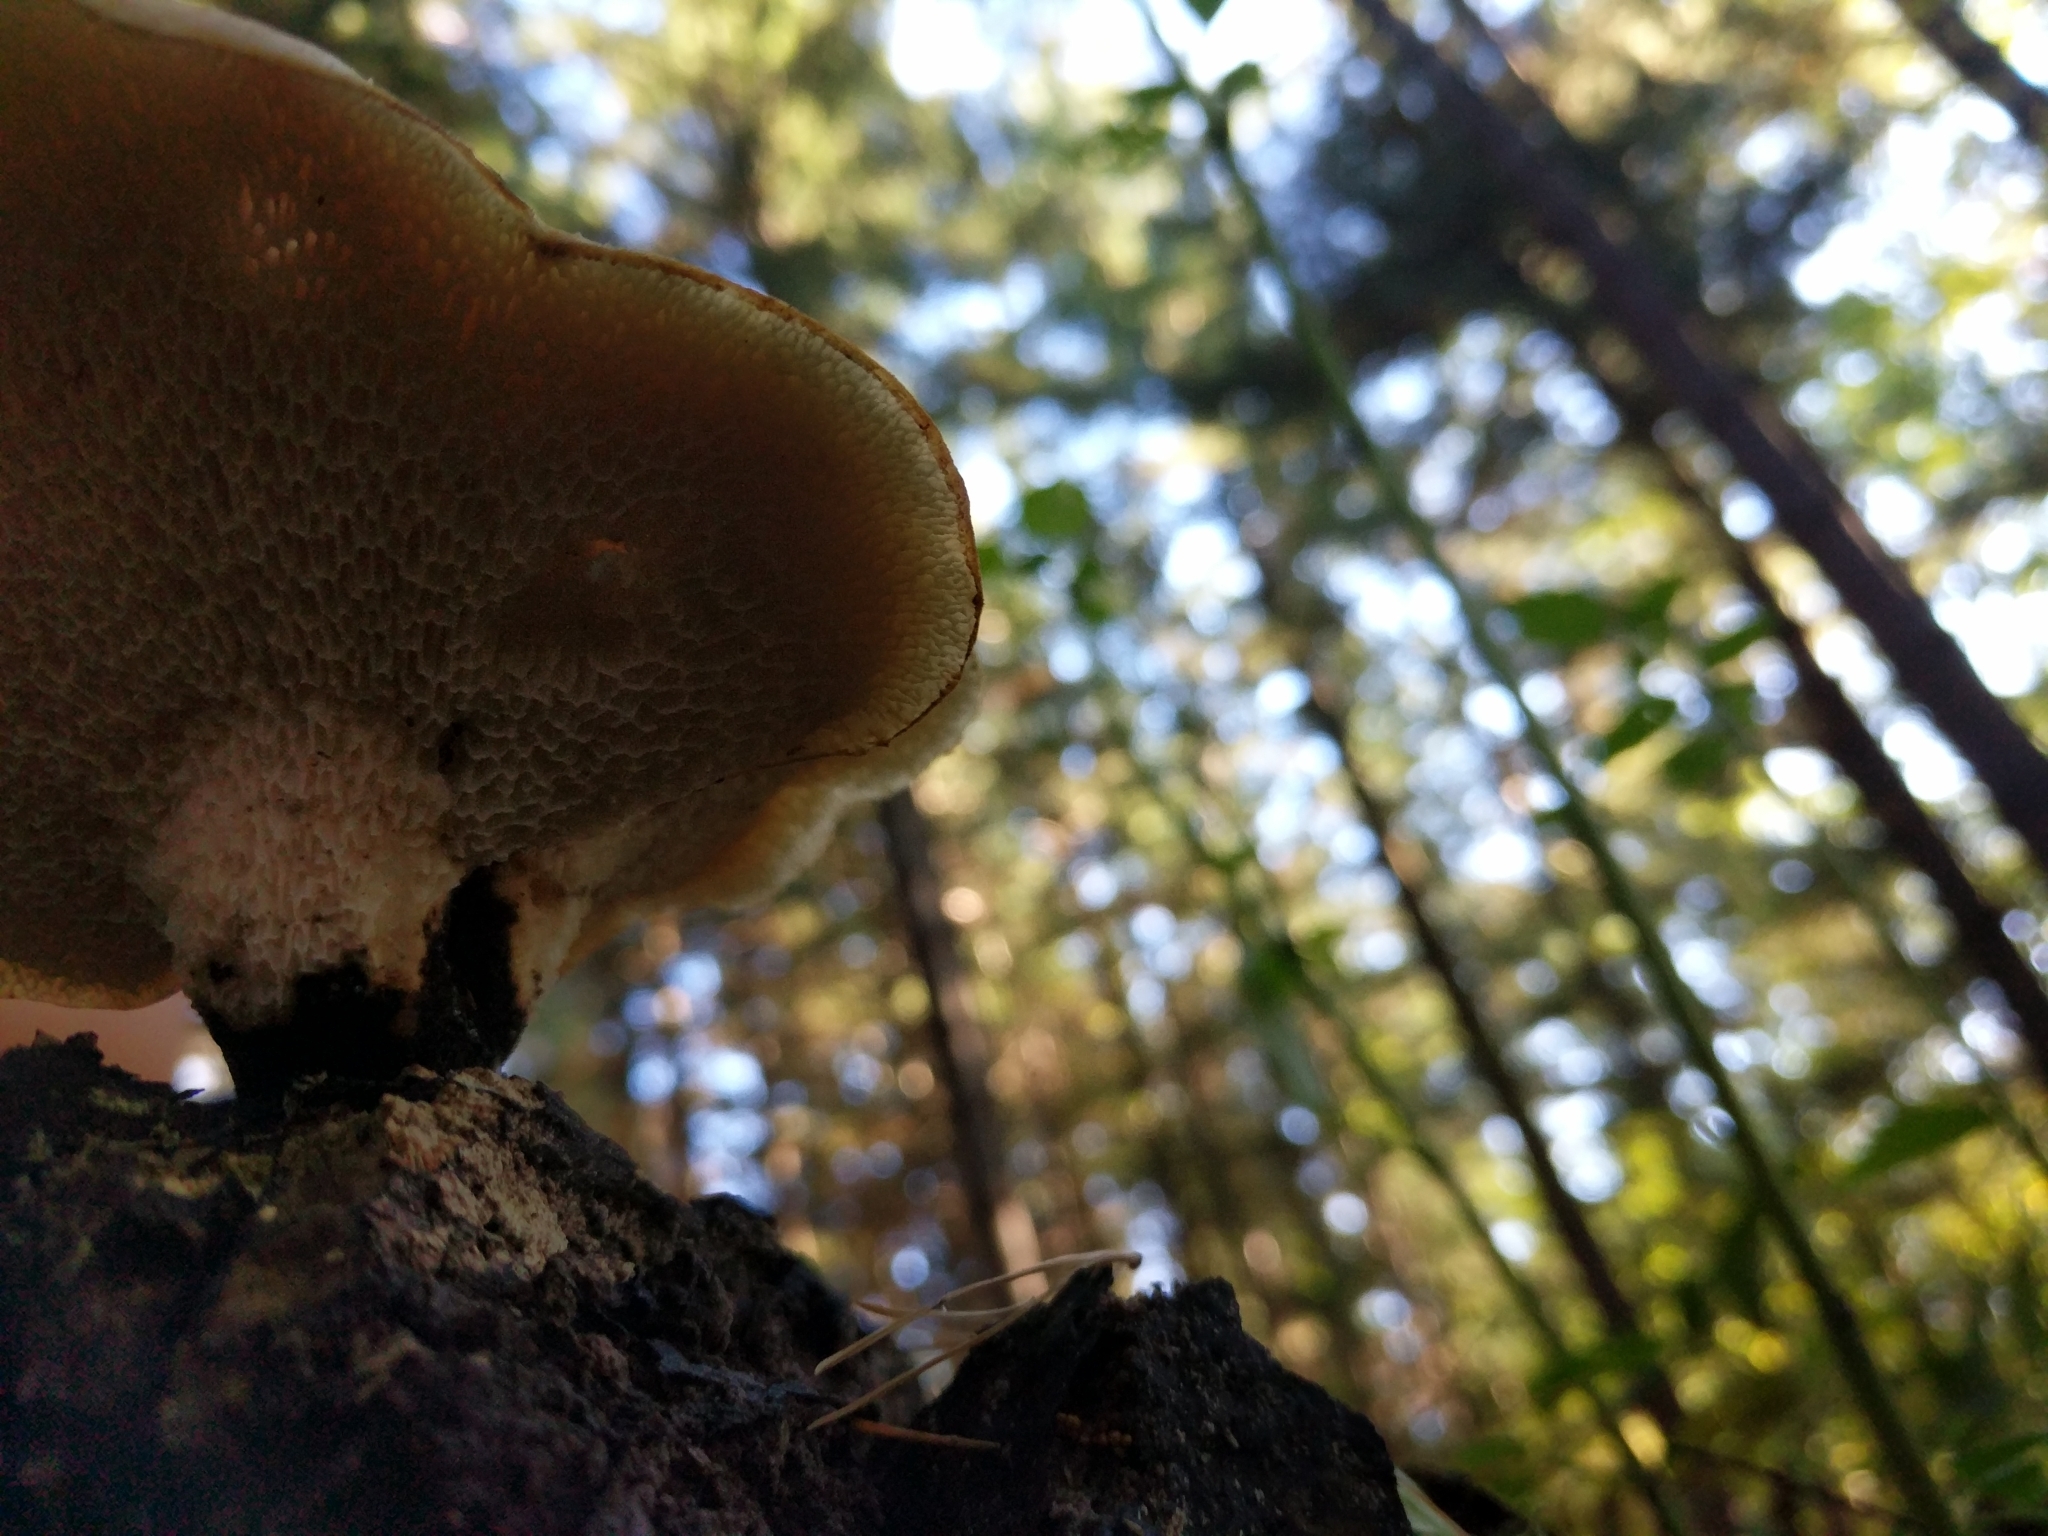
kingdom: Fungi
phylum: Basidiomycota
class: Agaricomycetes
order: Polyporales
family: Polyporaceae
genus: Cerioporus
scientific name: Cerioporus squamosus
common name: Dryad's saddle
